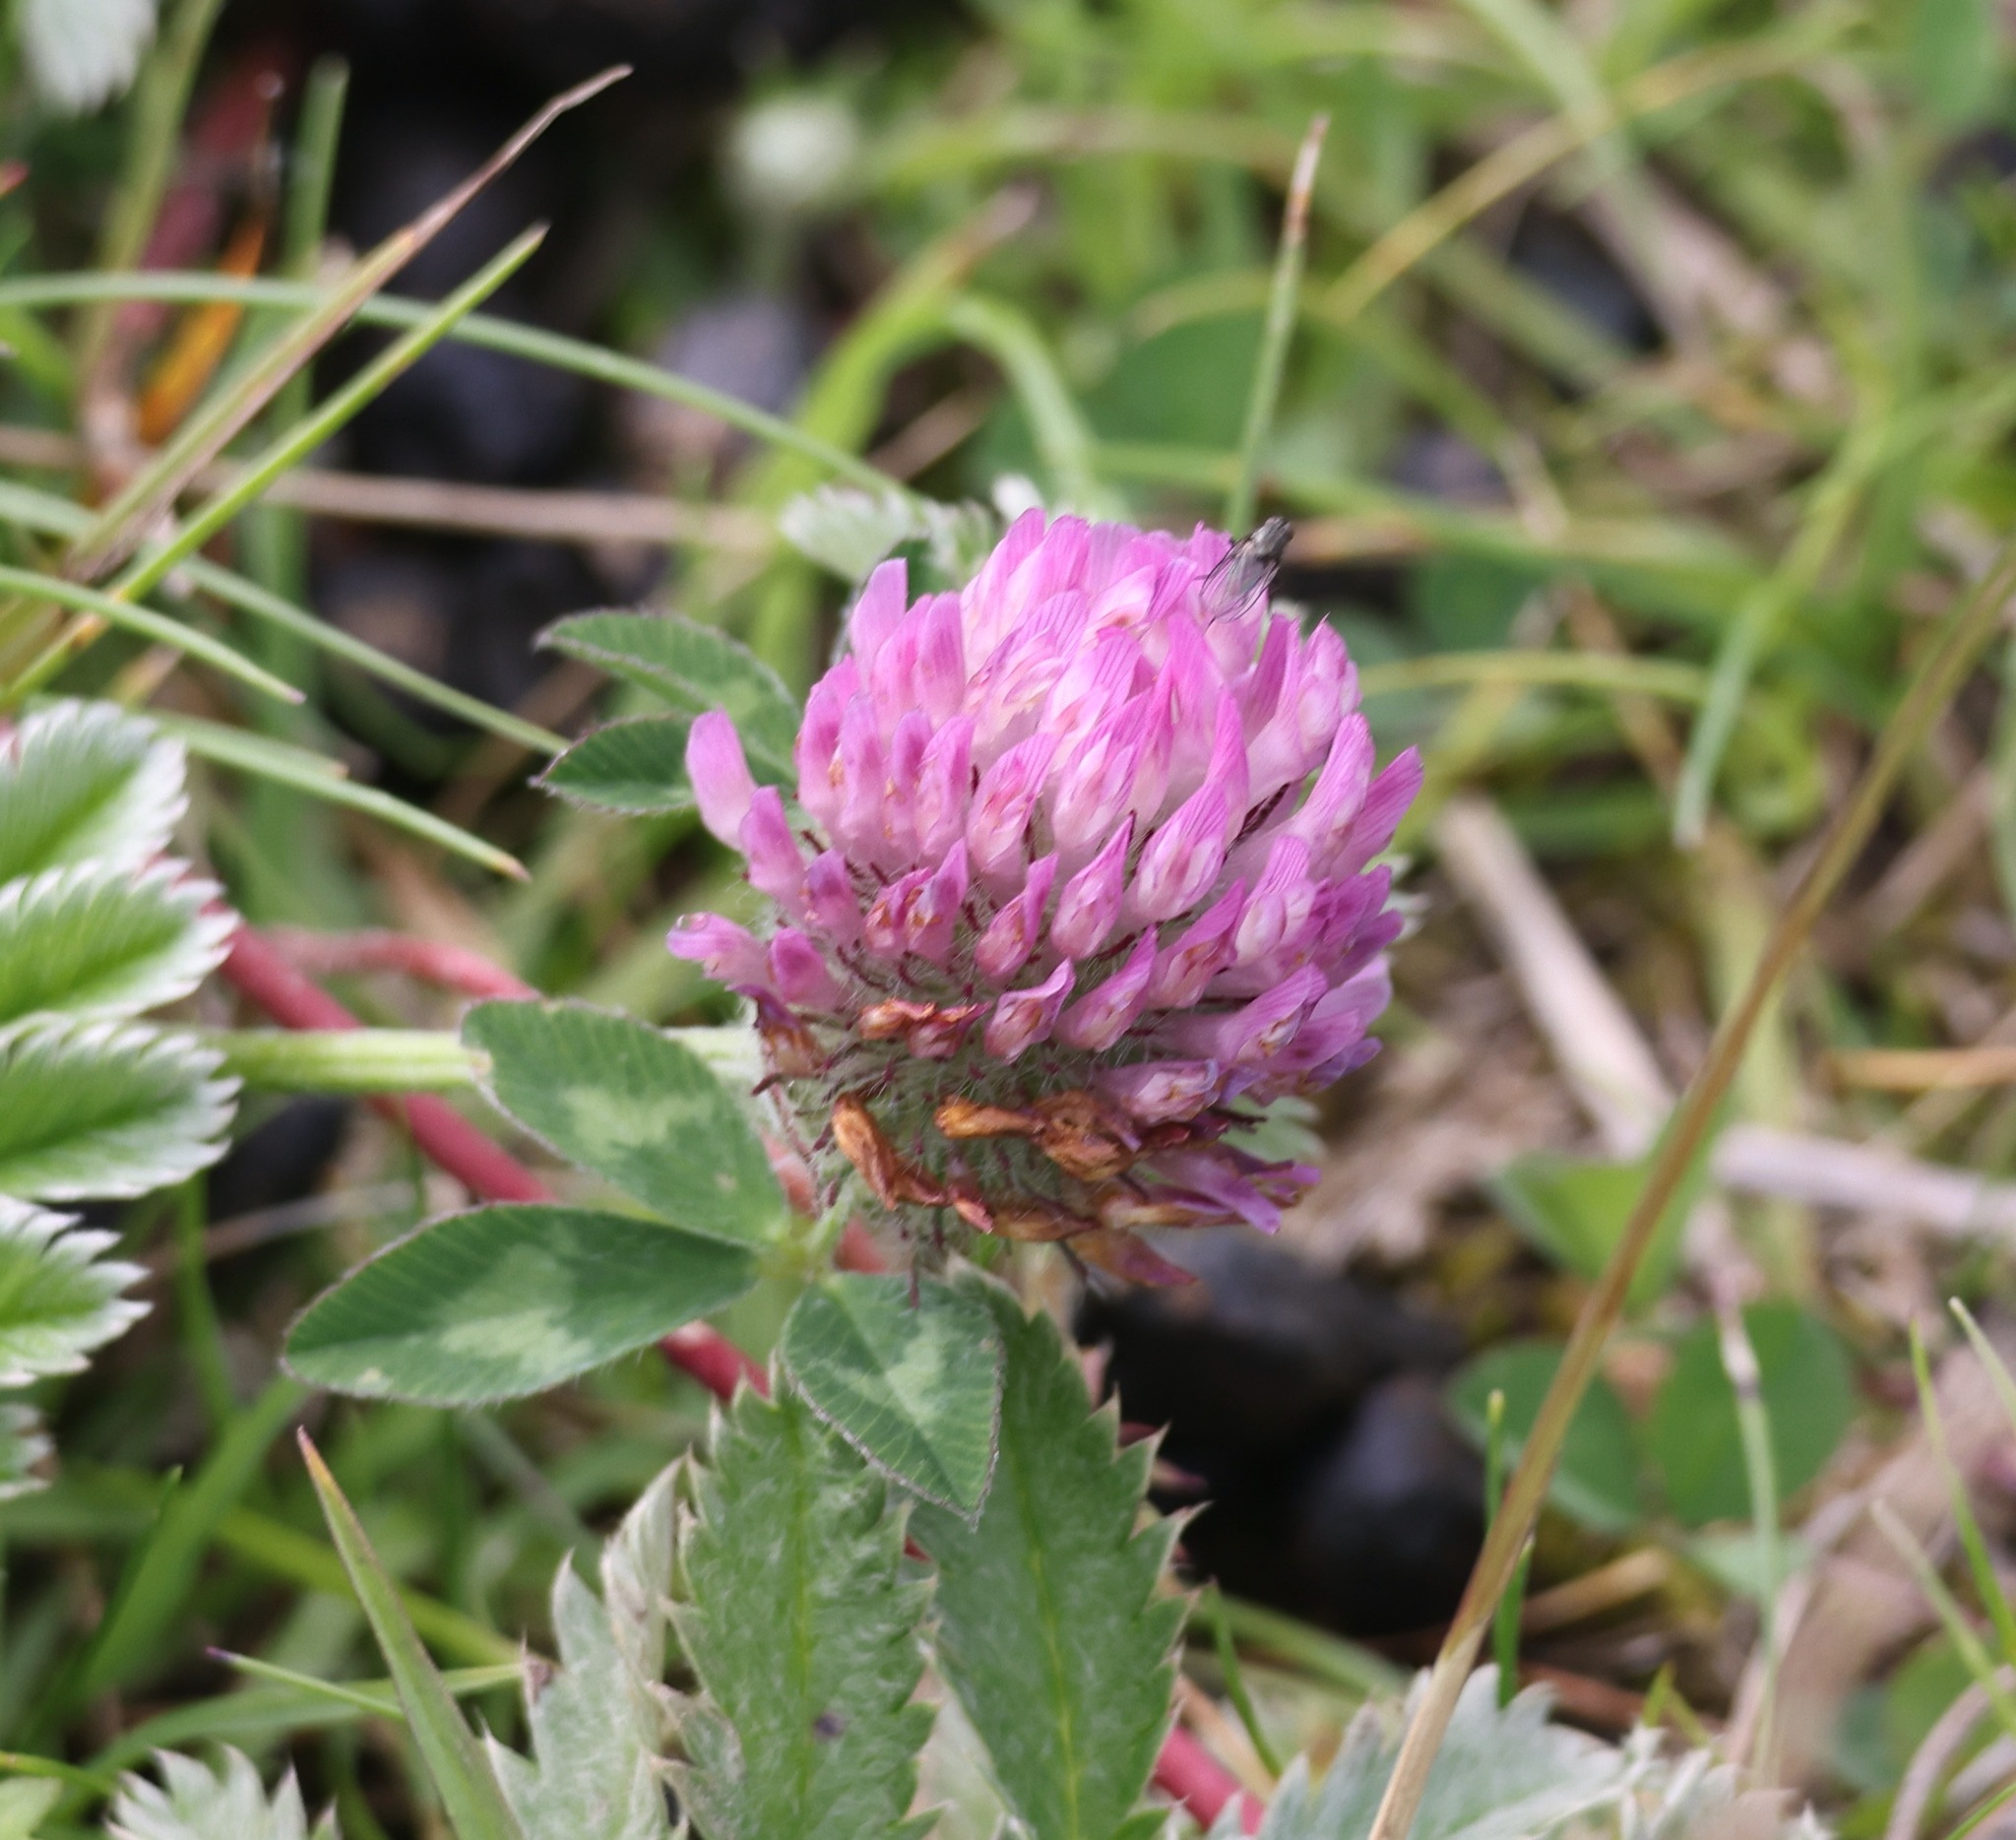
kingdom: Plantae
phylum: Tracheophyta
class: Magnoliopsida
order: Fabales
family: Fabaceae
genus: Trifolium
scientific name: Trifolium pratense
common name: Red clover
